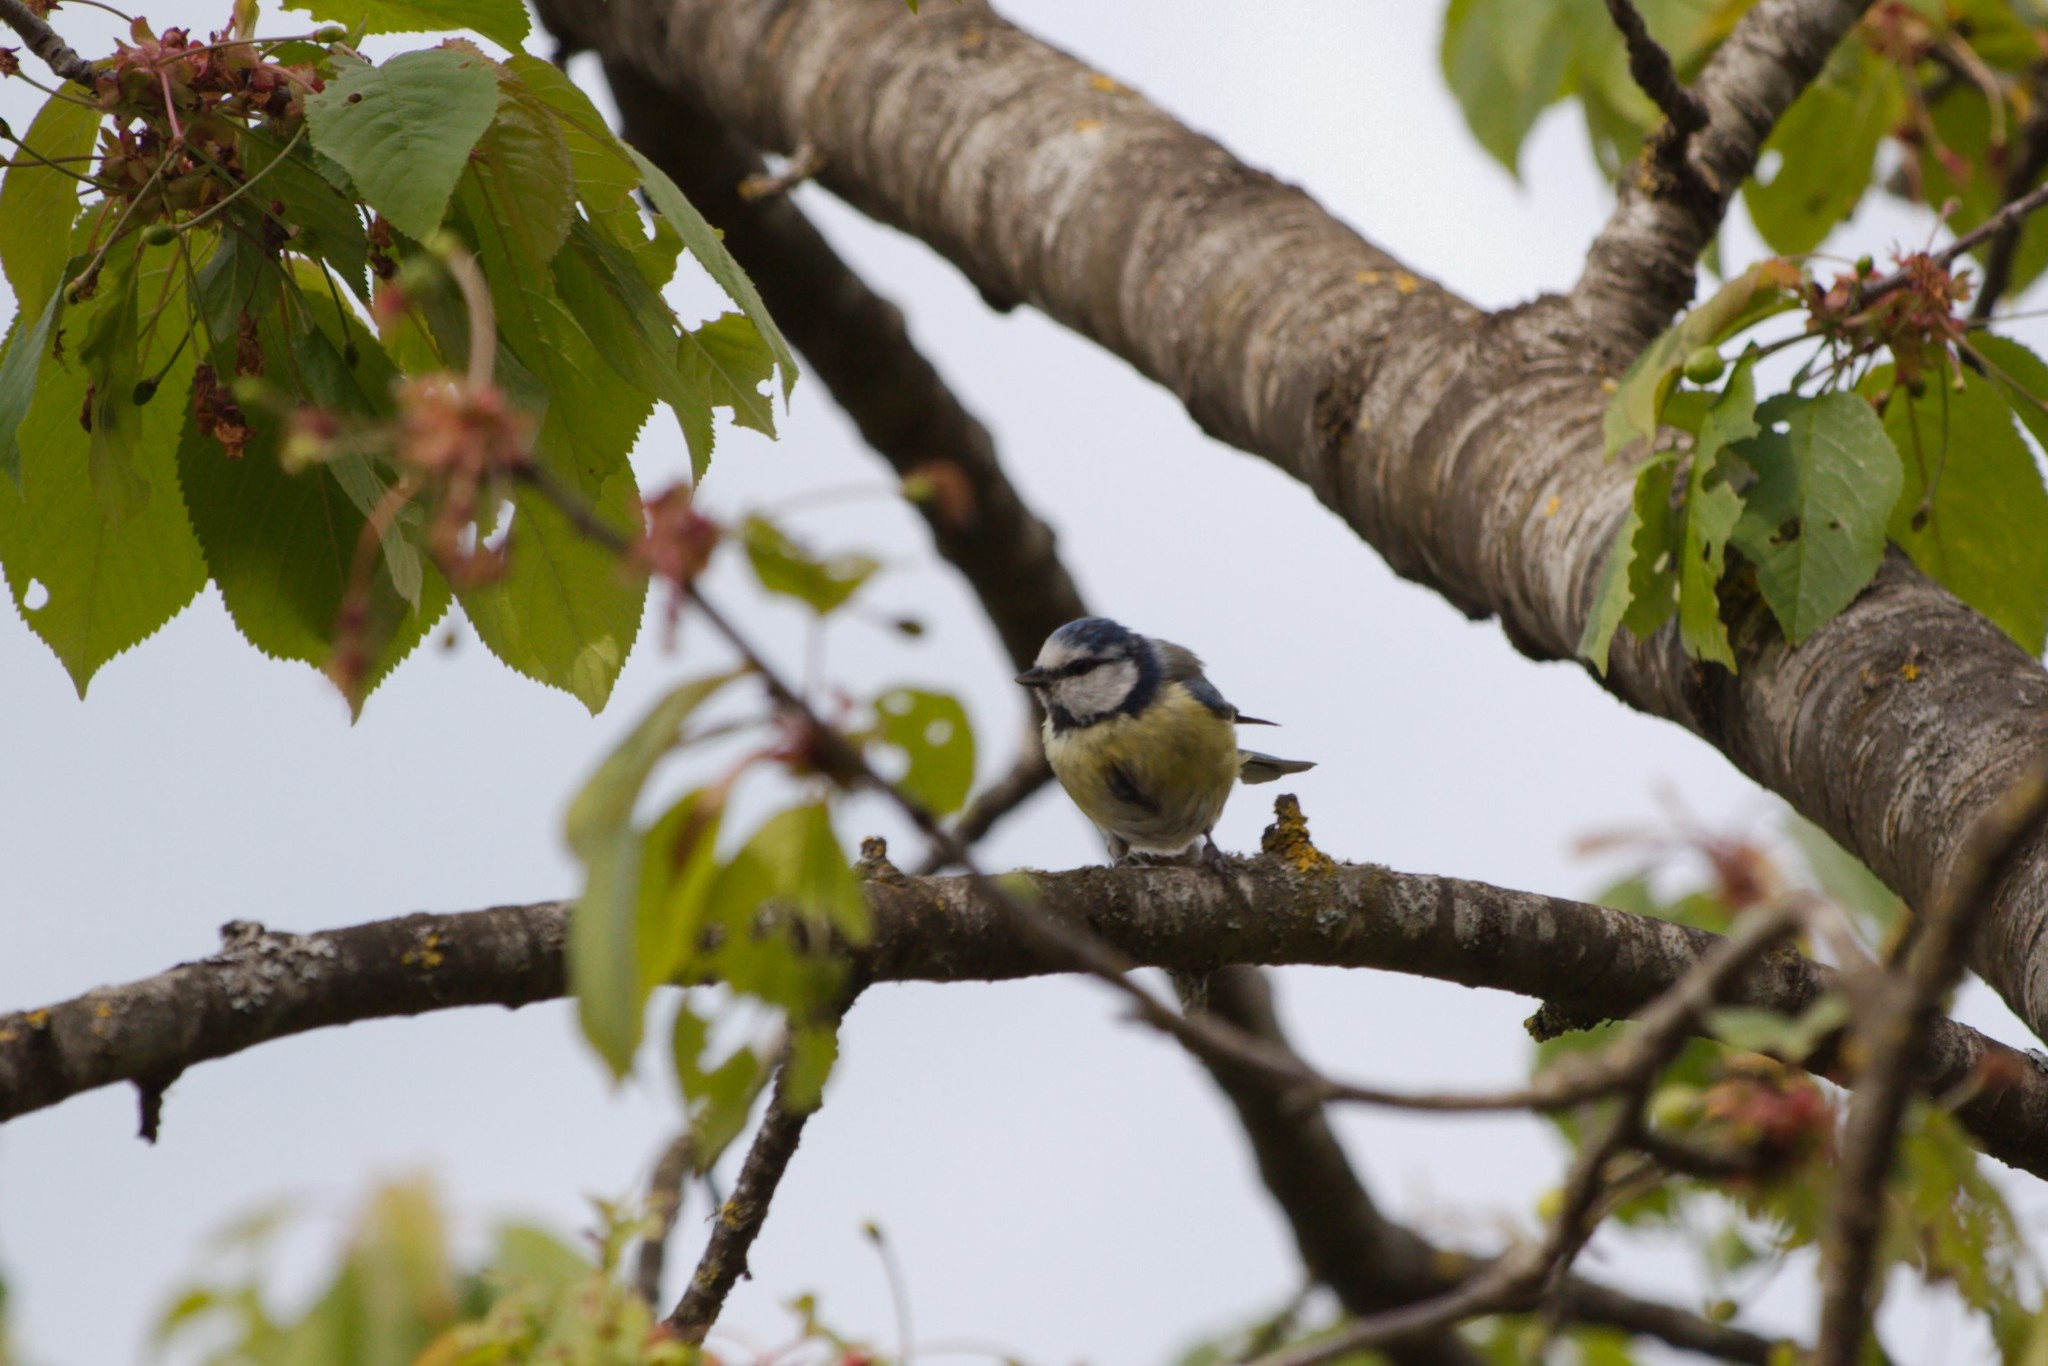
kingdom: Animalia
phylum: Chordata
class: Aves
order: Passeriformes
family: Paridae
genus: Cyanistes
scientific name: Cyanistes caeruleus
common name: Eurasian blue tit
